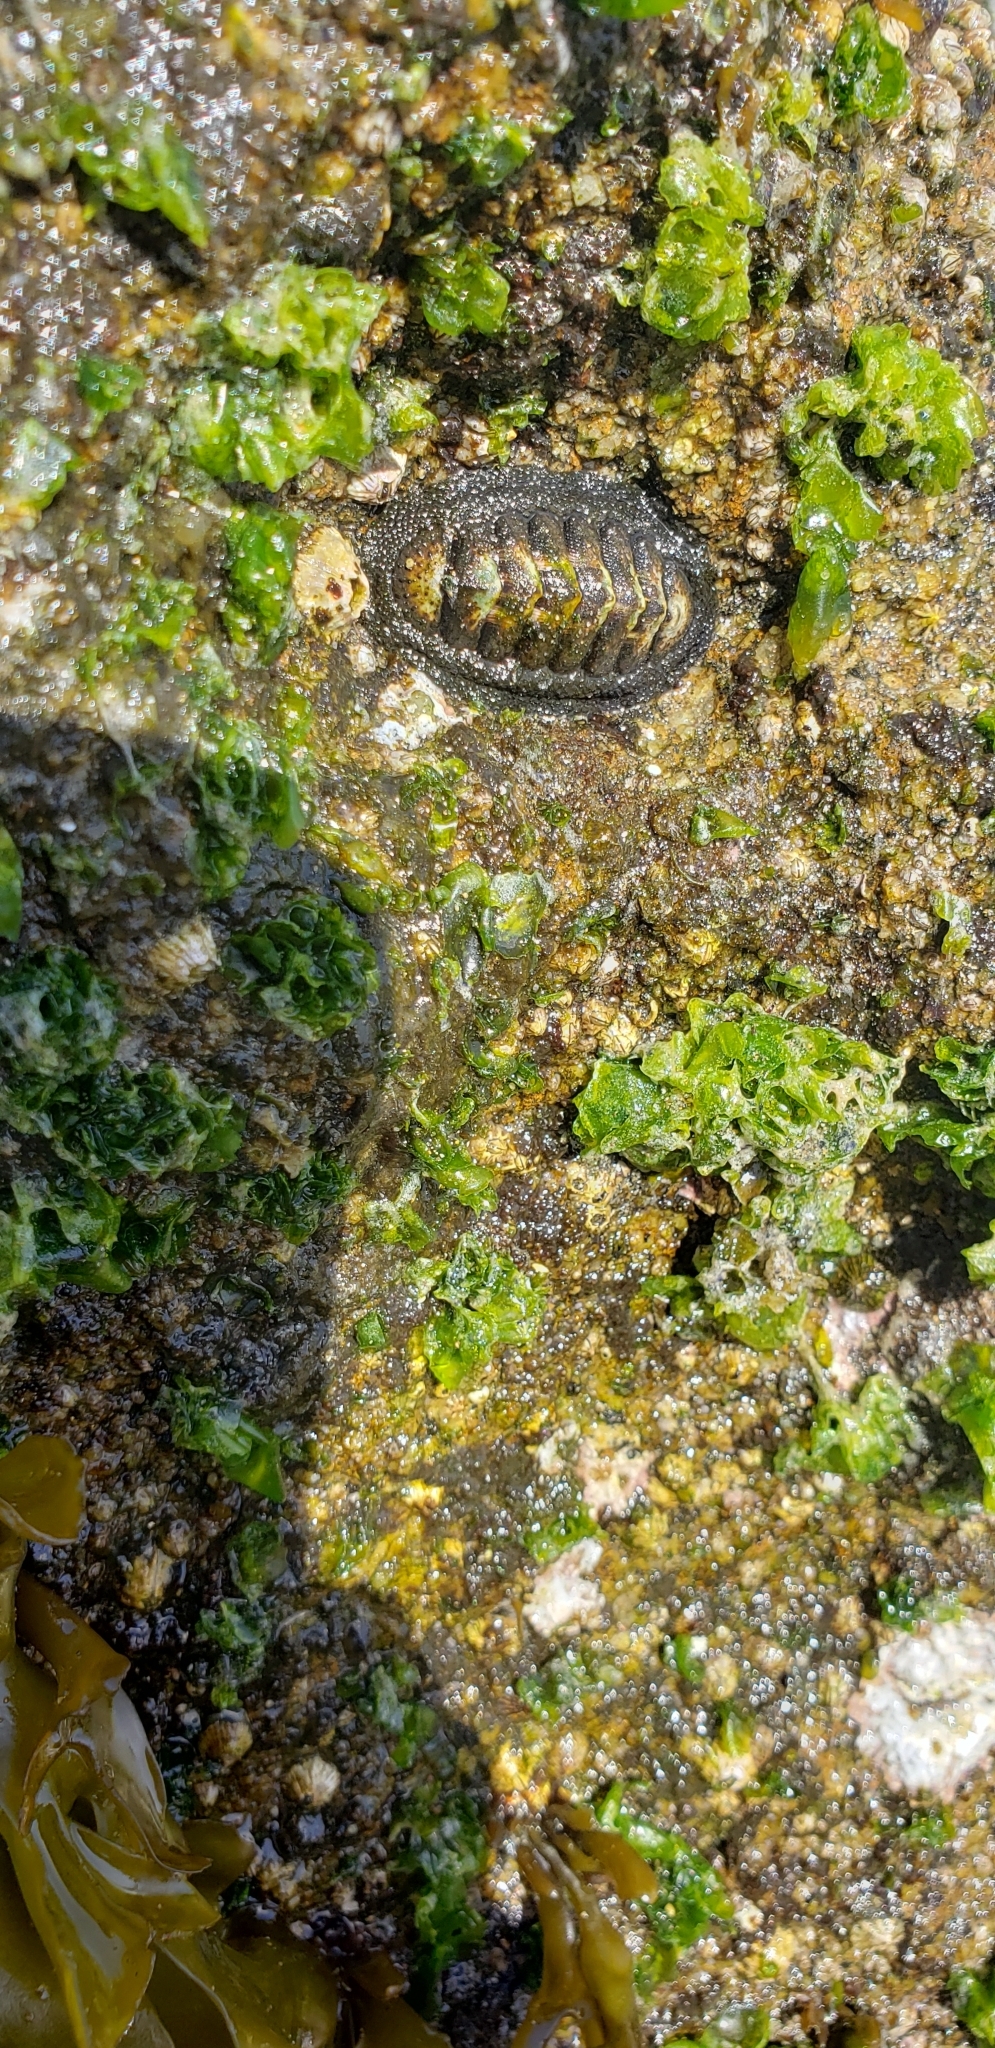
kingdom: Animalia
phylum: Mollusca
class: Polyplacophora
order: Chitonida
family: Chitonidae
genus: Chiton
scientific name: Chiton granosus
